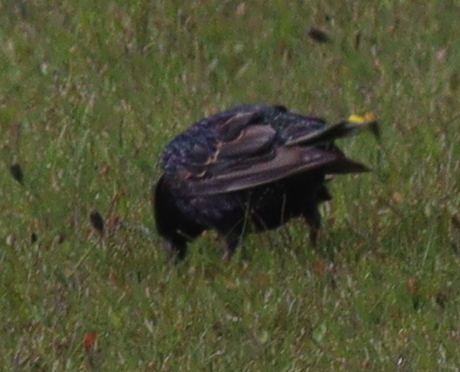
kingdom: Animalia
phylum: Chordata
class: Aves
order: Passeriformes
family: Sturnidae
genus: Sturnus
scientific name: Sturnus vulgaris
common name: Common starling
